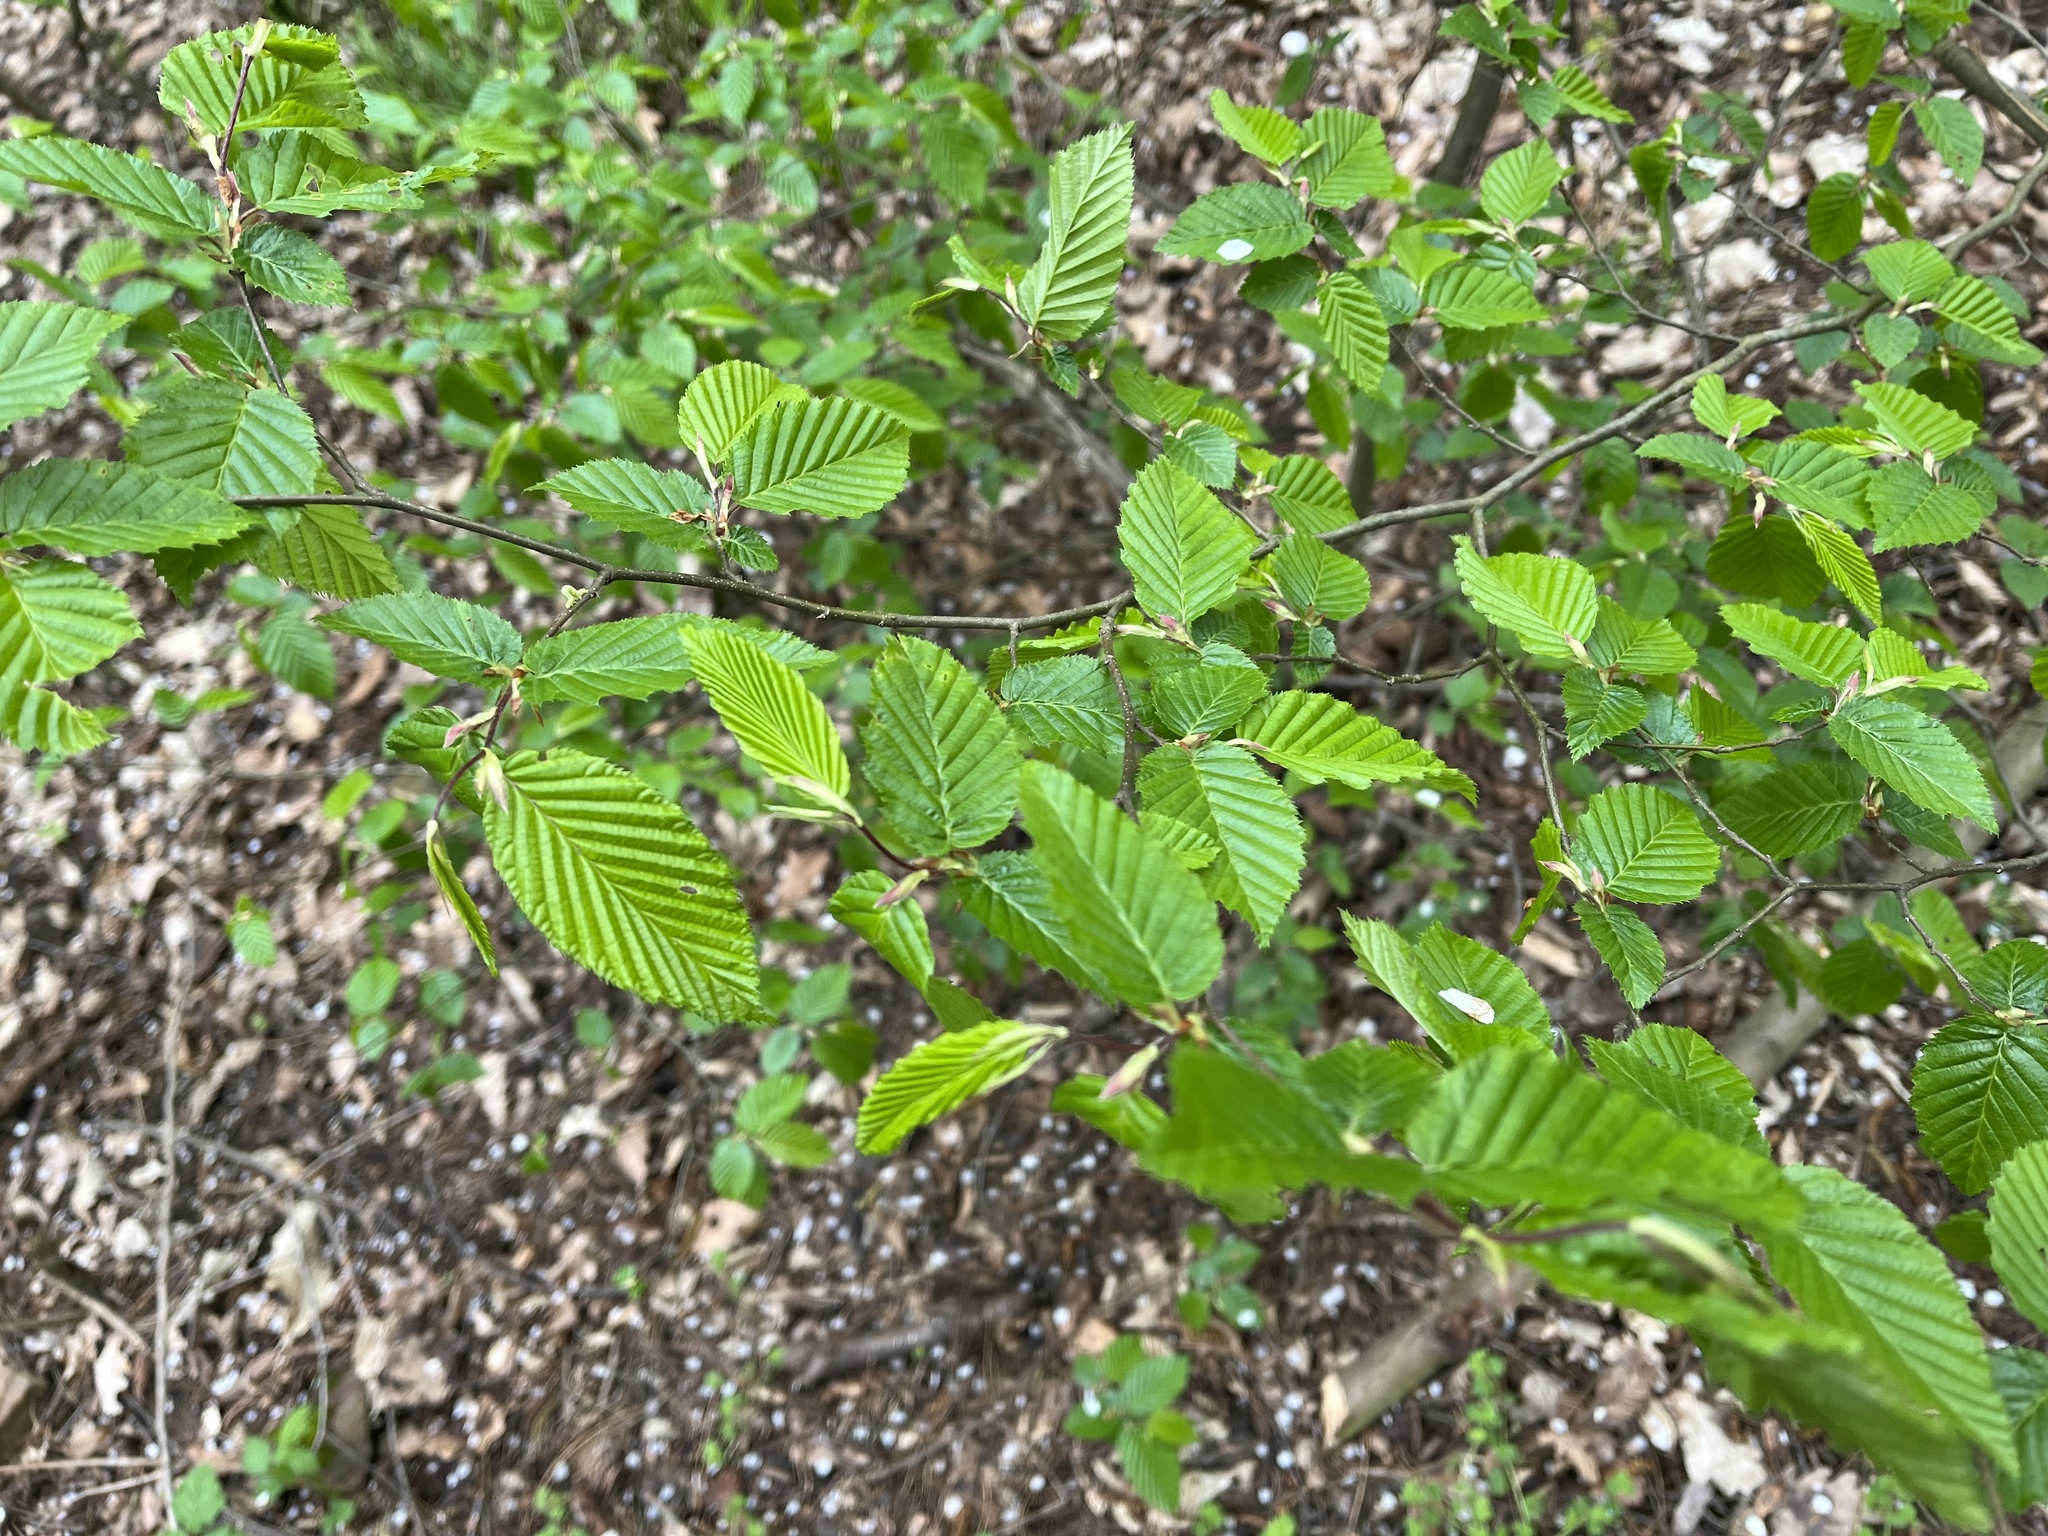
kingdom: Plantae
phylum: Tracheophyta
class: Magnoliopsida
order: Fagales
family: Betulaceae
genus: Carpinus
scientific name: Carpinus betulus
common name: Hornbeam
